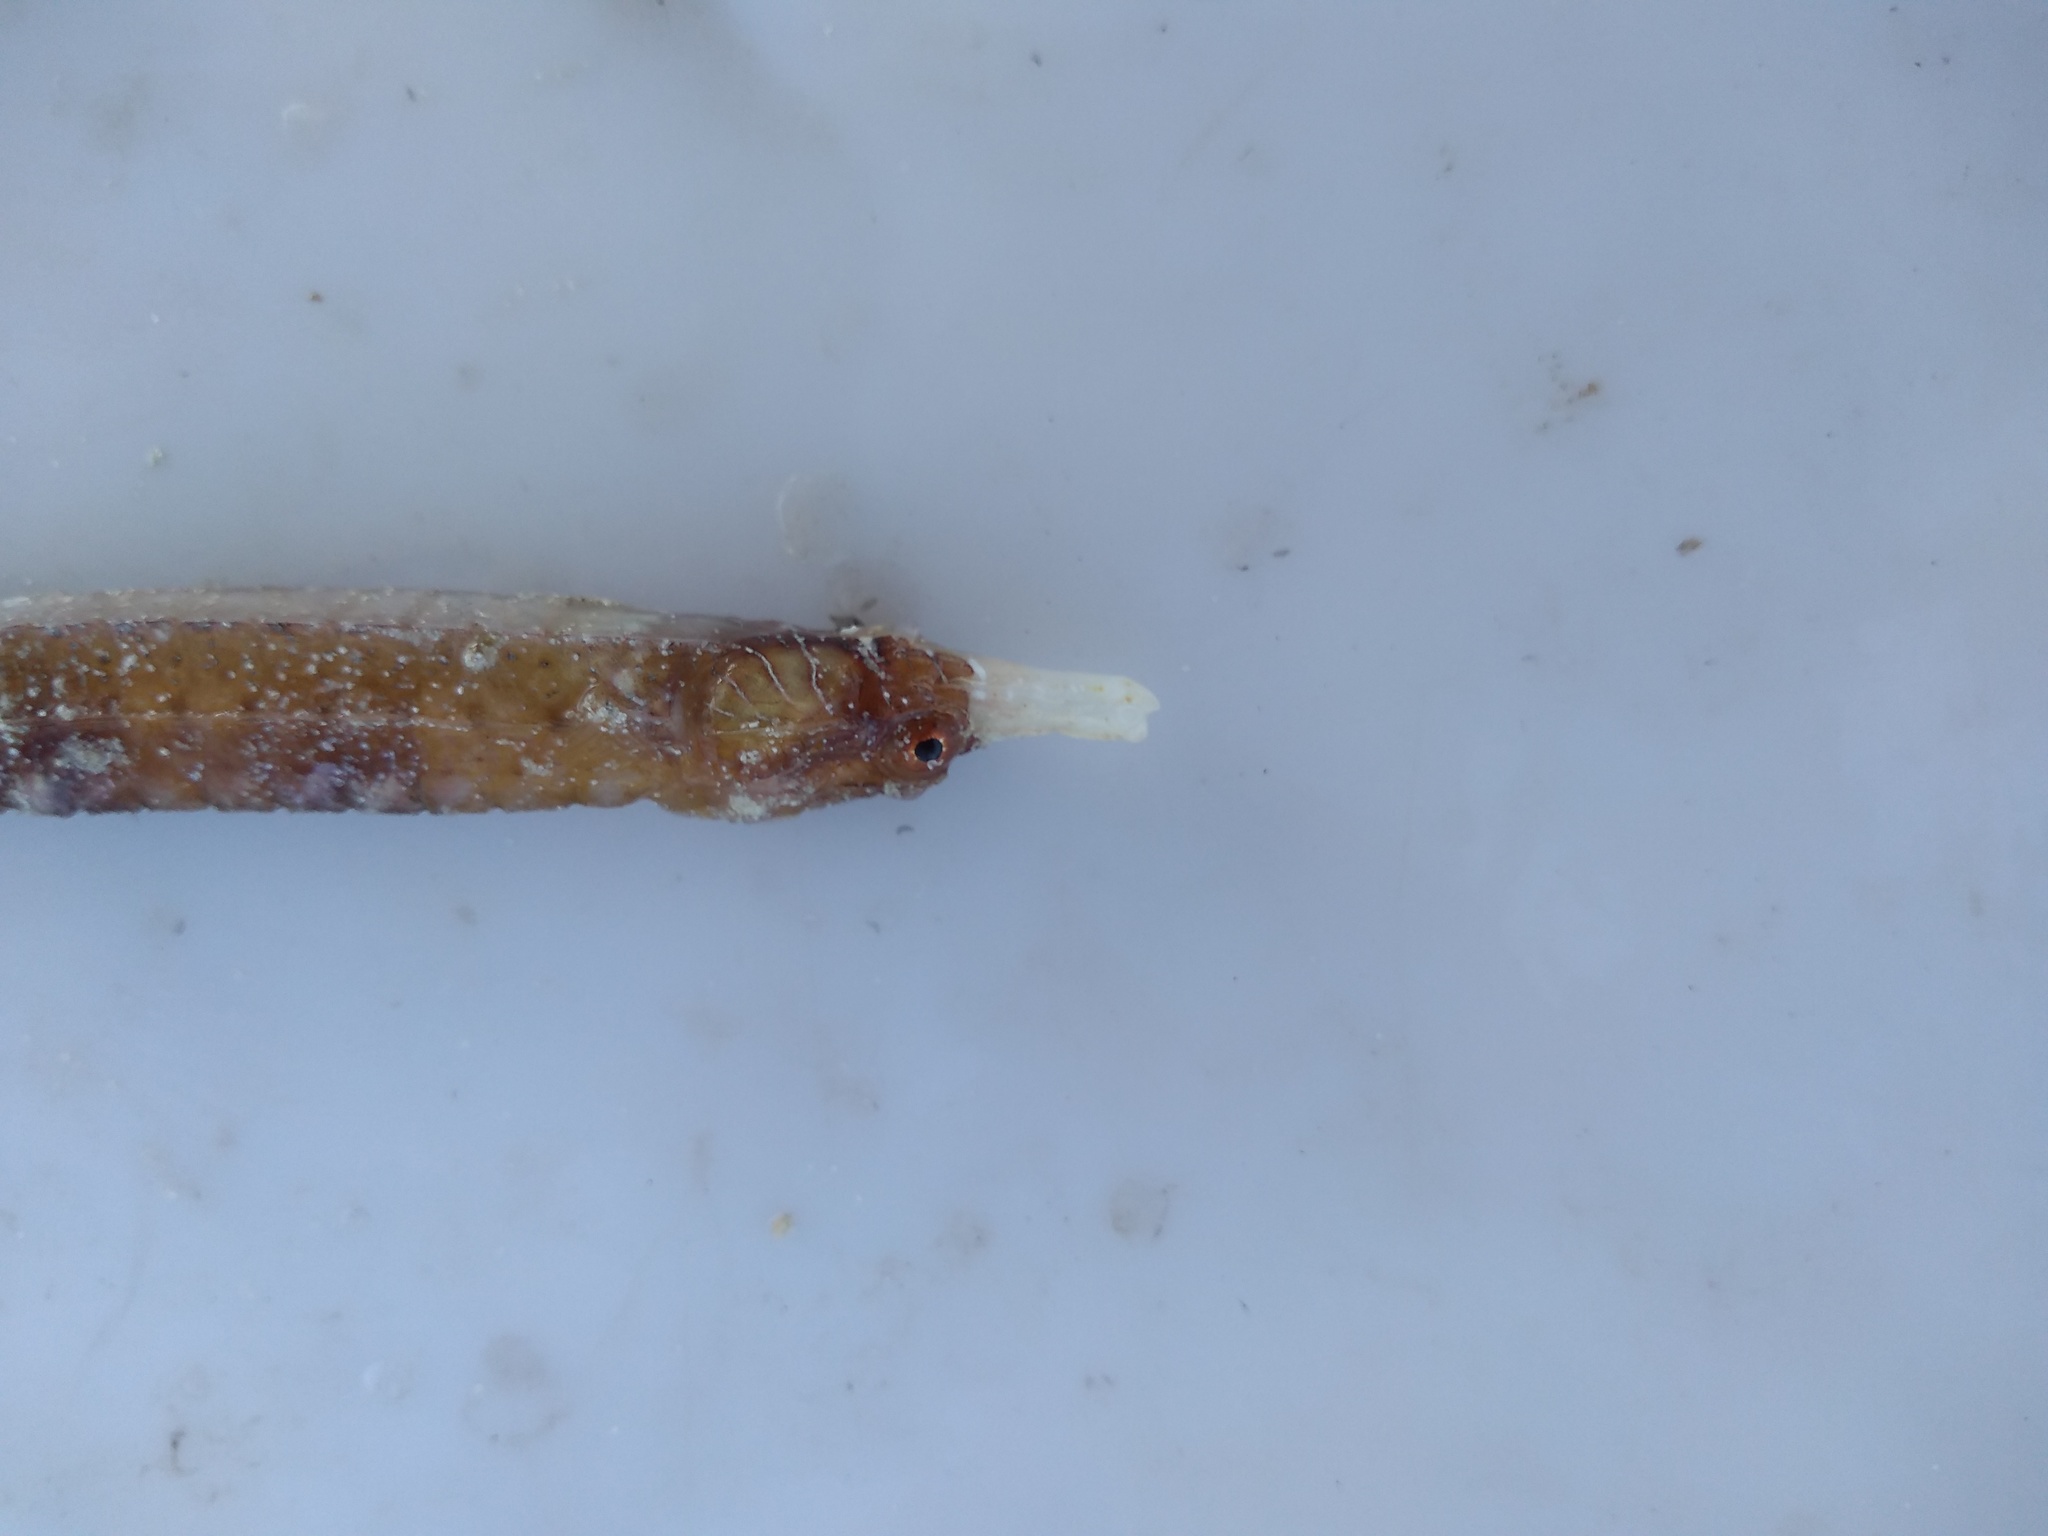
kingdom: Animalia
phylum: Chordata
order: Syngnathiformes
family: Syngnathidae
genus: Cosmocampus
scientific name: Cosmocampus albirostris
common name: White-nose pipefish
